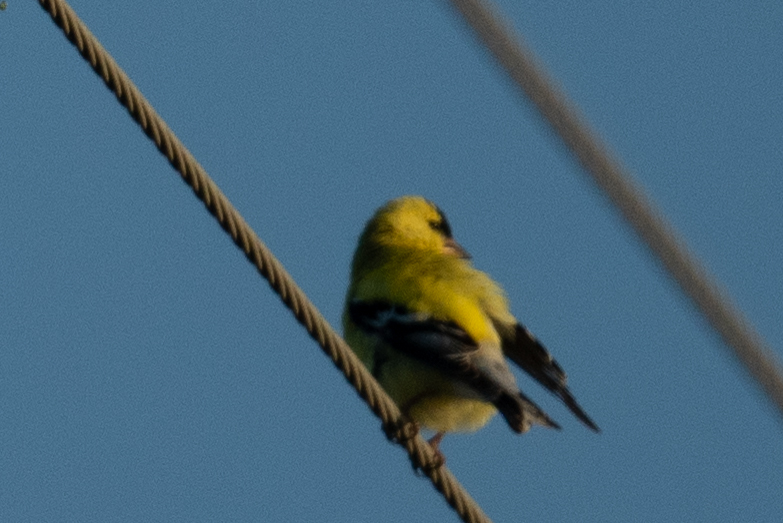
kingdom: Animalia
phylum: Chordata
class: Aves
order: Passeriformes
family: Fringillidae
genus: Spinus
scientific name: Spinus tristis
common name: American goldfinch
